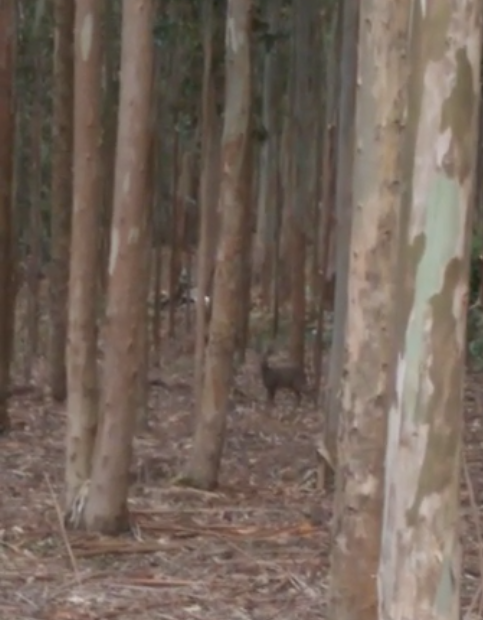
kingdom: Animalia
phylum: Chordata
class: Mammalia
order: Artiodactyla
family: Cervidae
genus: Capreolus
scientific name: Capreolus capreolus
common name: Western roe deer
